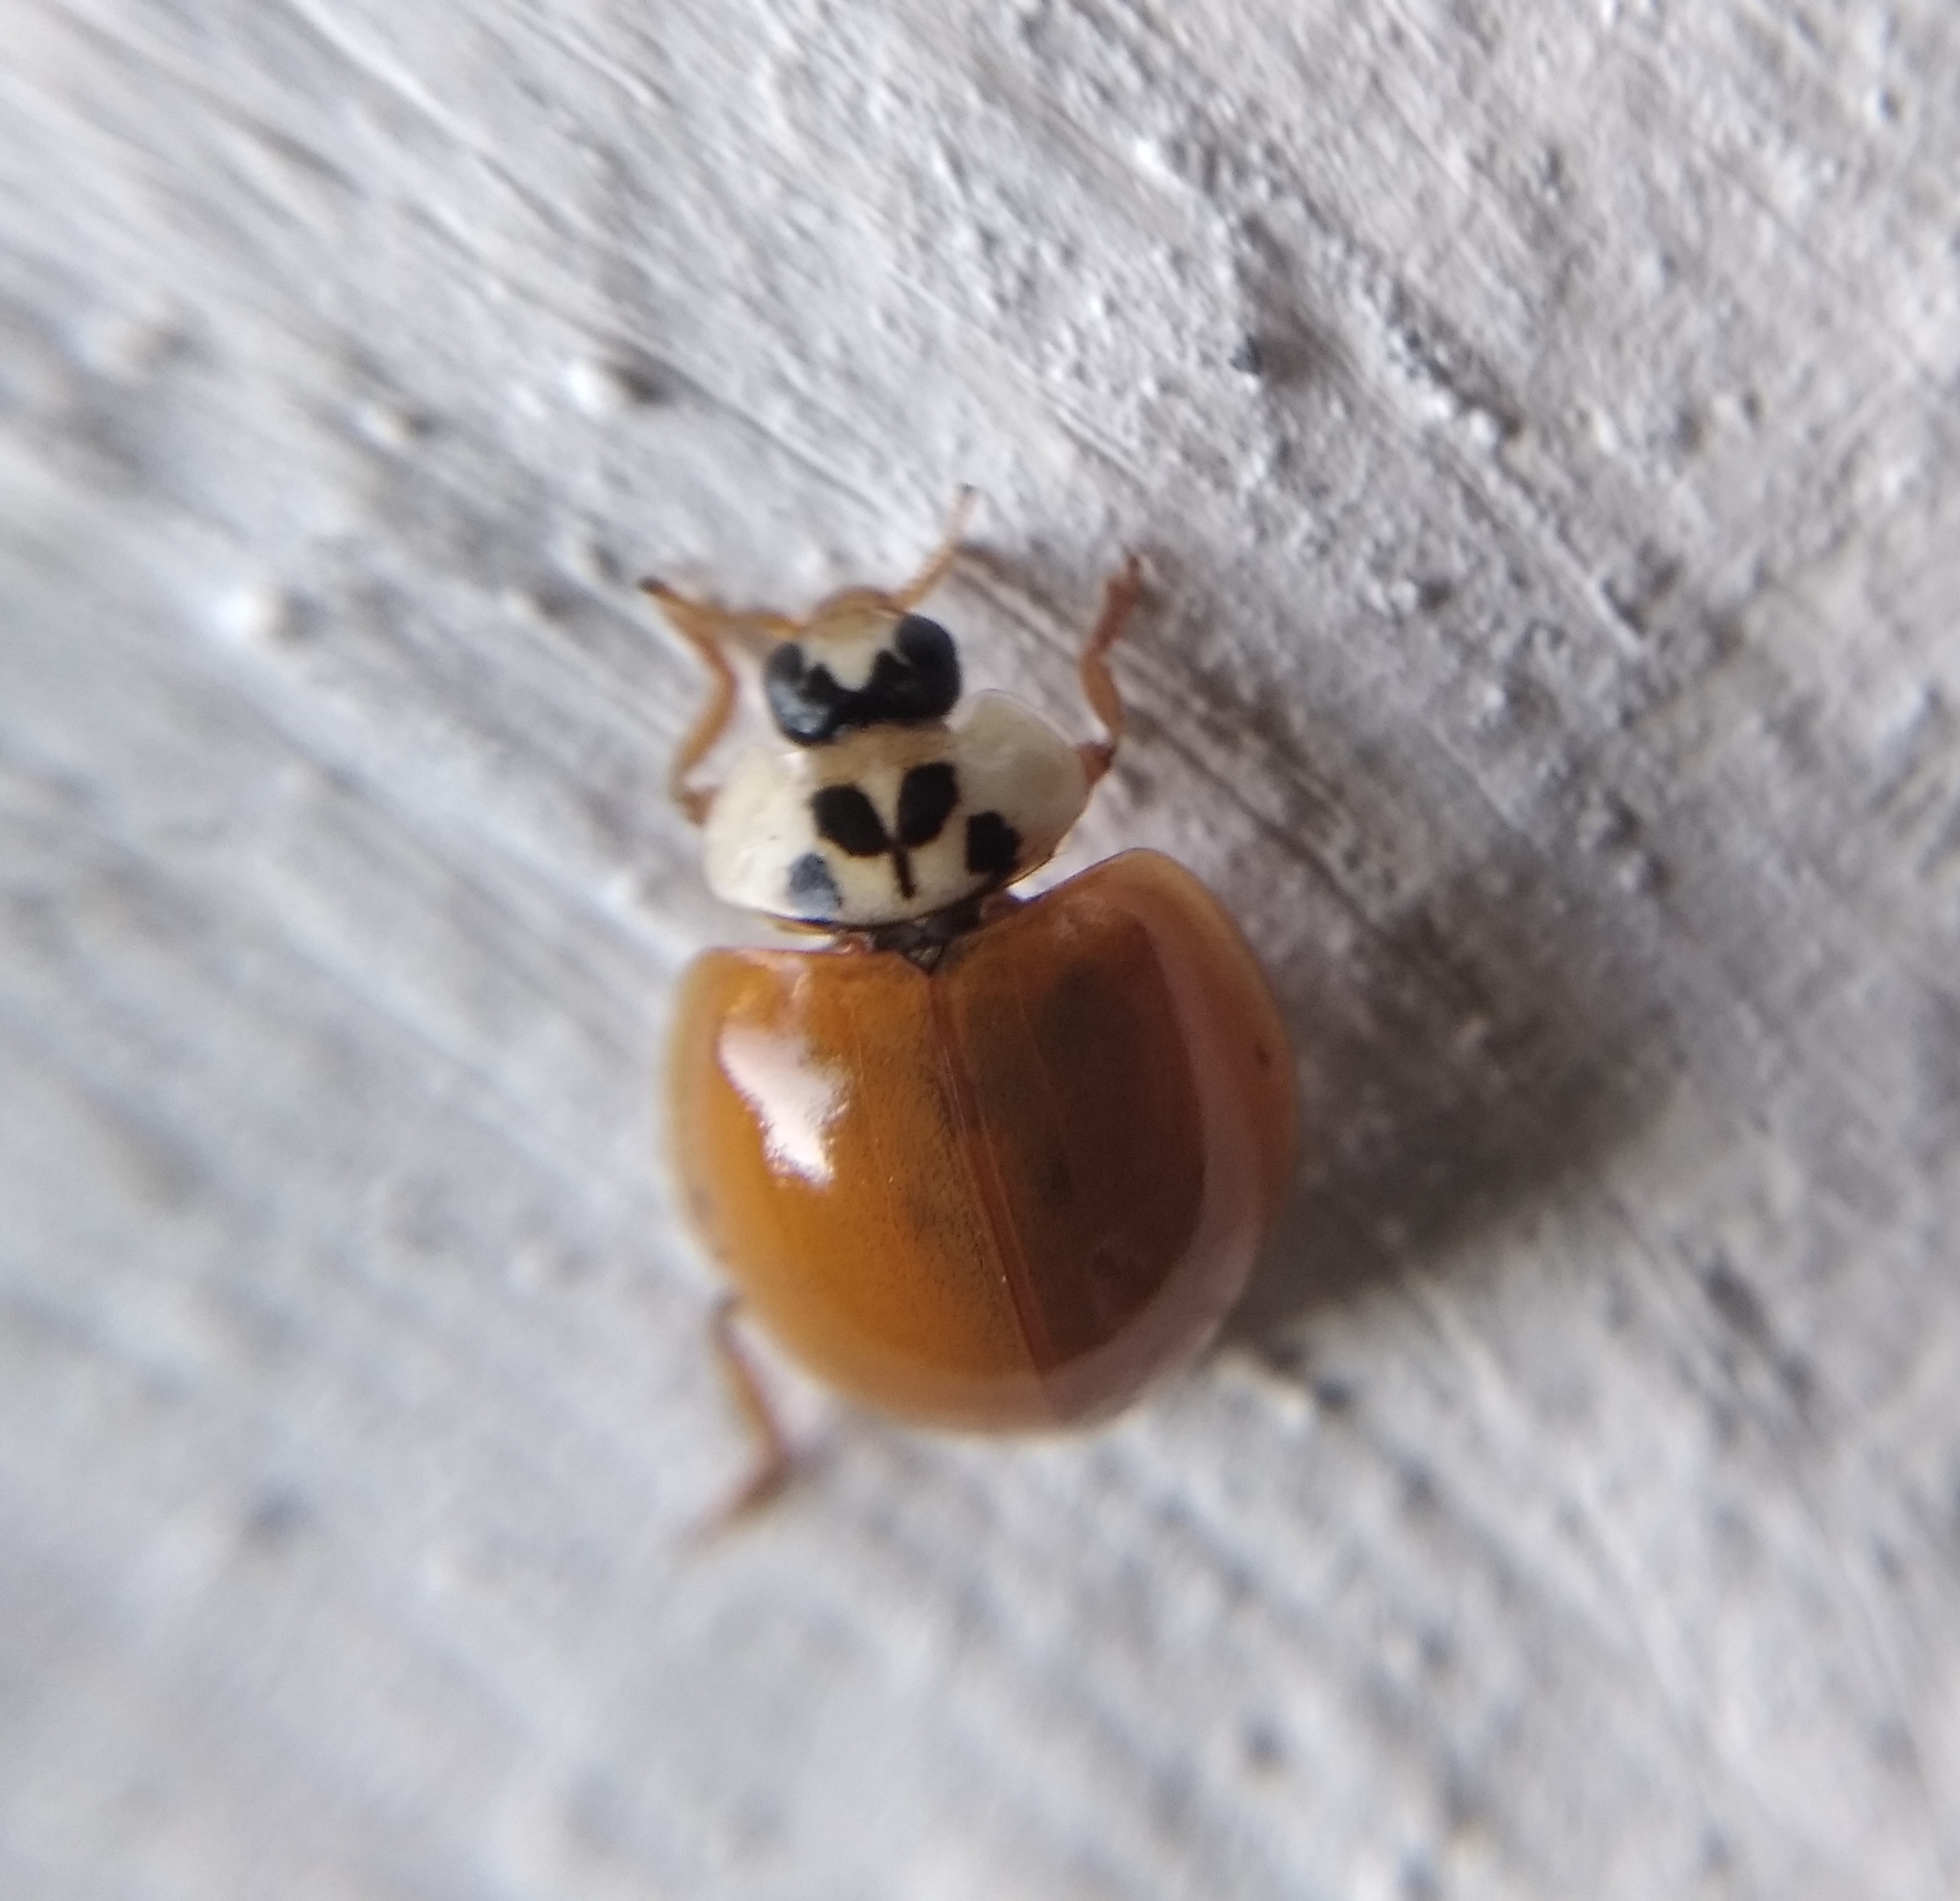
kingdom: Animalia
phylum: Arthropoda
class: Insecta
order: Coleoptera
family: Coccinellidae
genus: Harmonia
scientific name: Harmonia axyridis
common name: Harlequin ladybird
